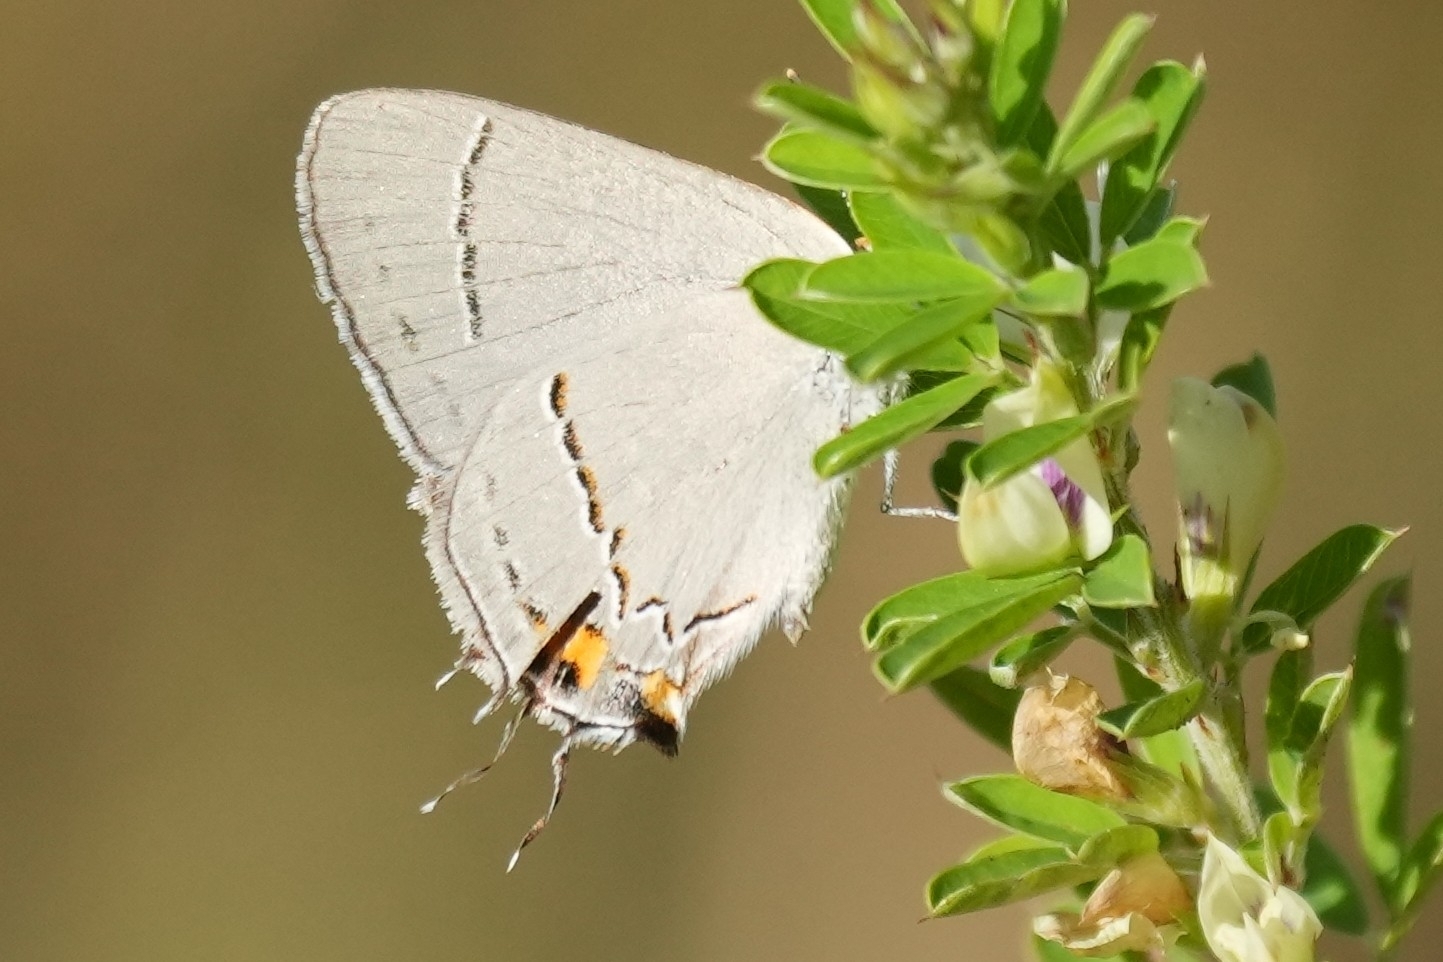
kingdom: Animalia
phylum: Arthropoda
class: Insecta
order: Lepidoptera
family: Lycaenidae
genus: Strymon
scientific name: Strymon melinus
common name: Gray hairstreak
